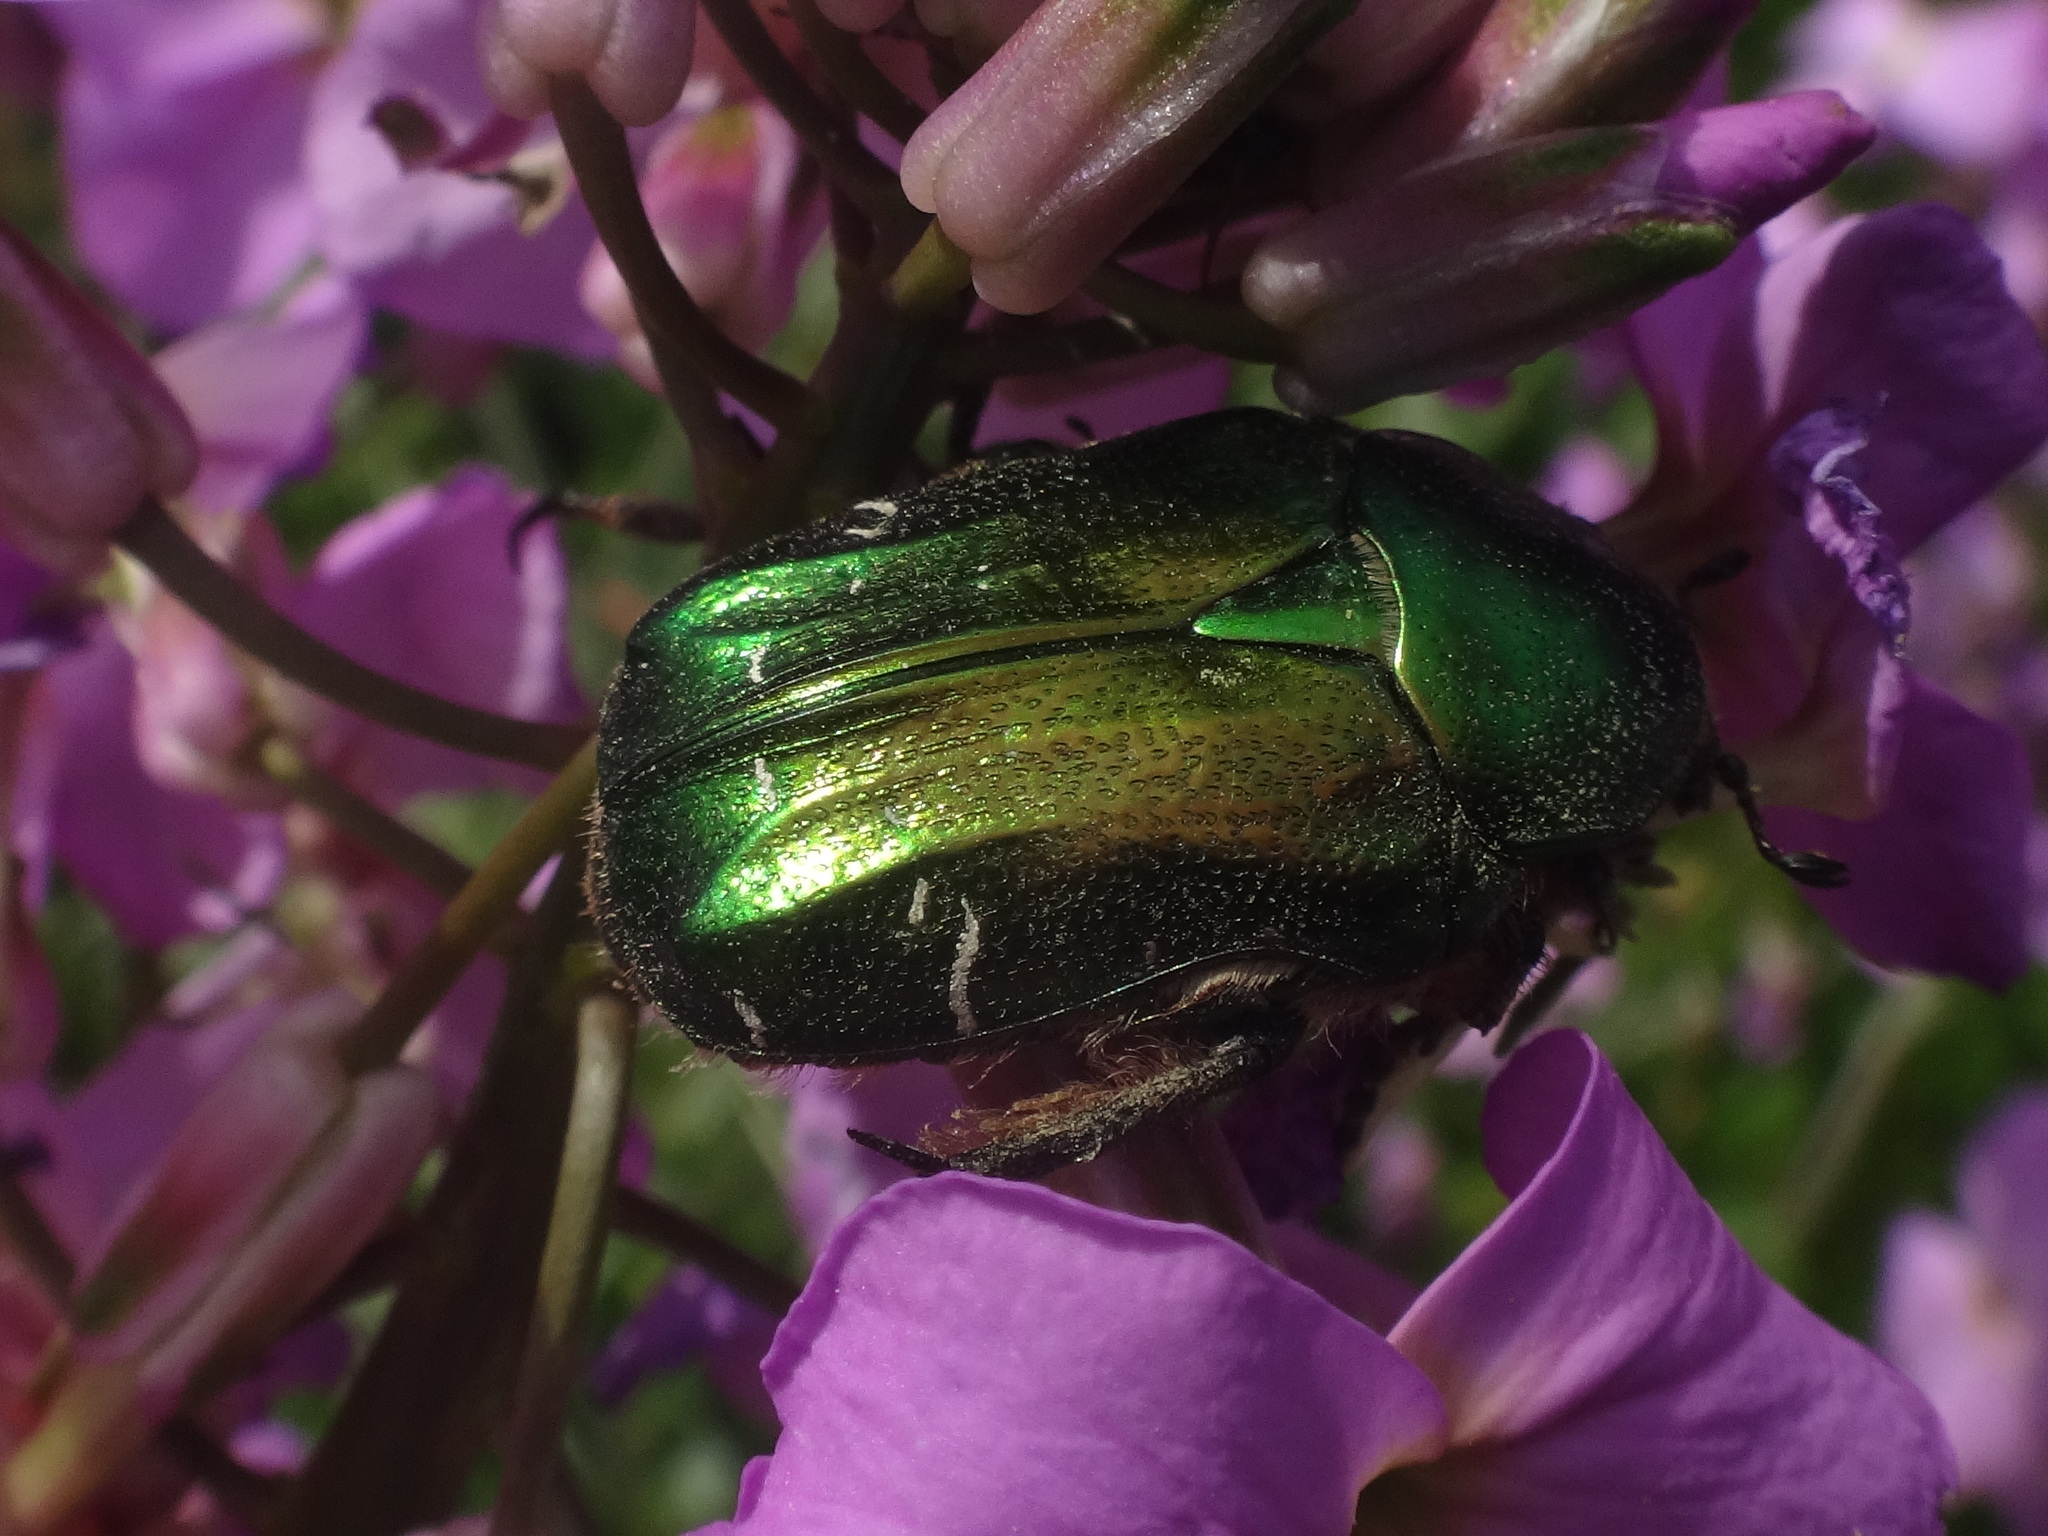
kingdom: Animalia
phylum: Arthropoda
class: Insecta
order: Coleoptera
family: Scarabaeidae
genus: Cetonia
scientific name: Cetonia aurata
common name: Rose chafer
